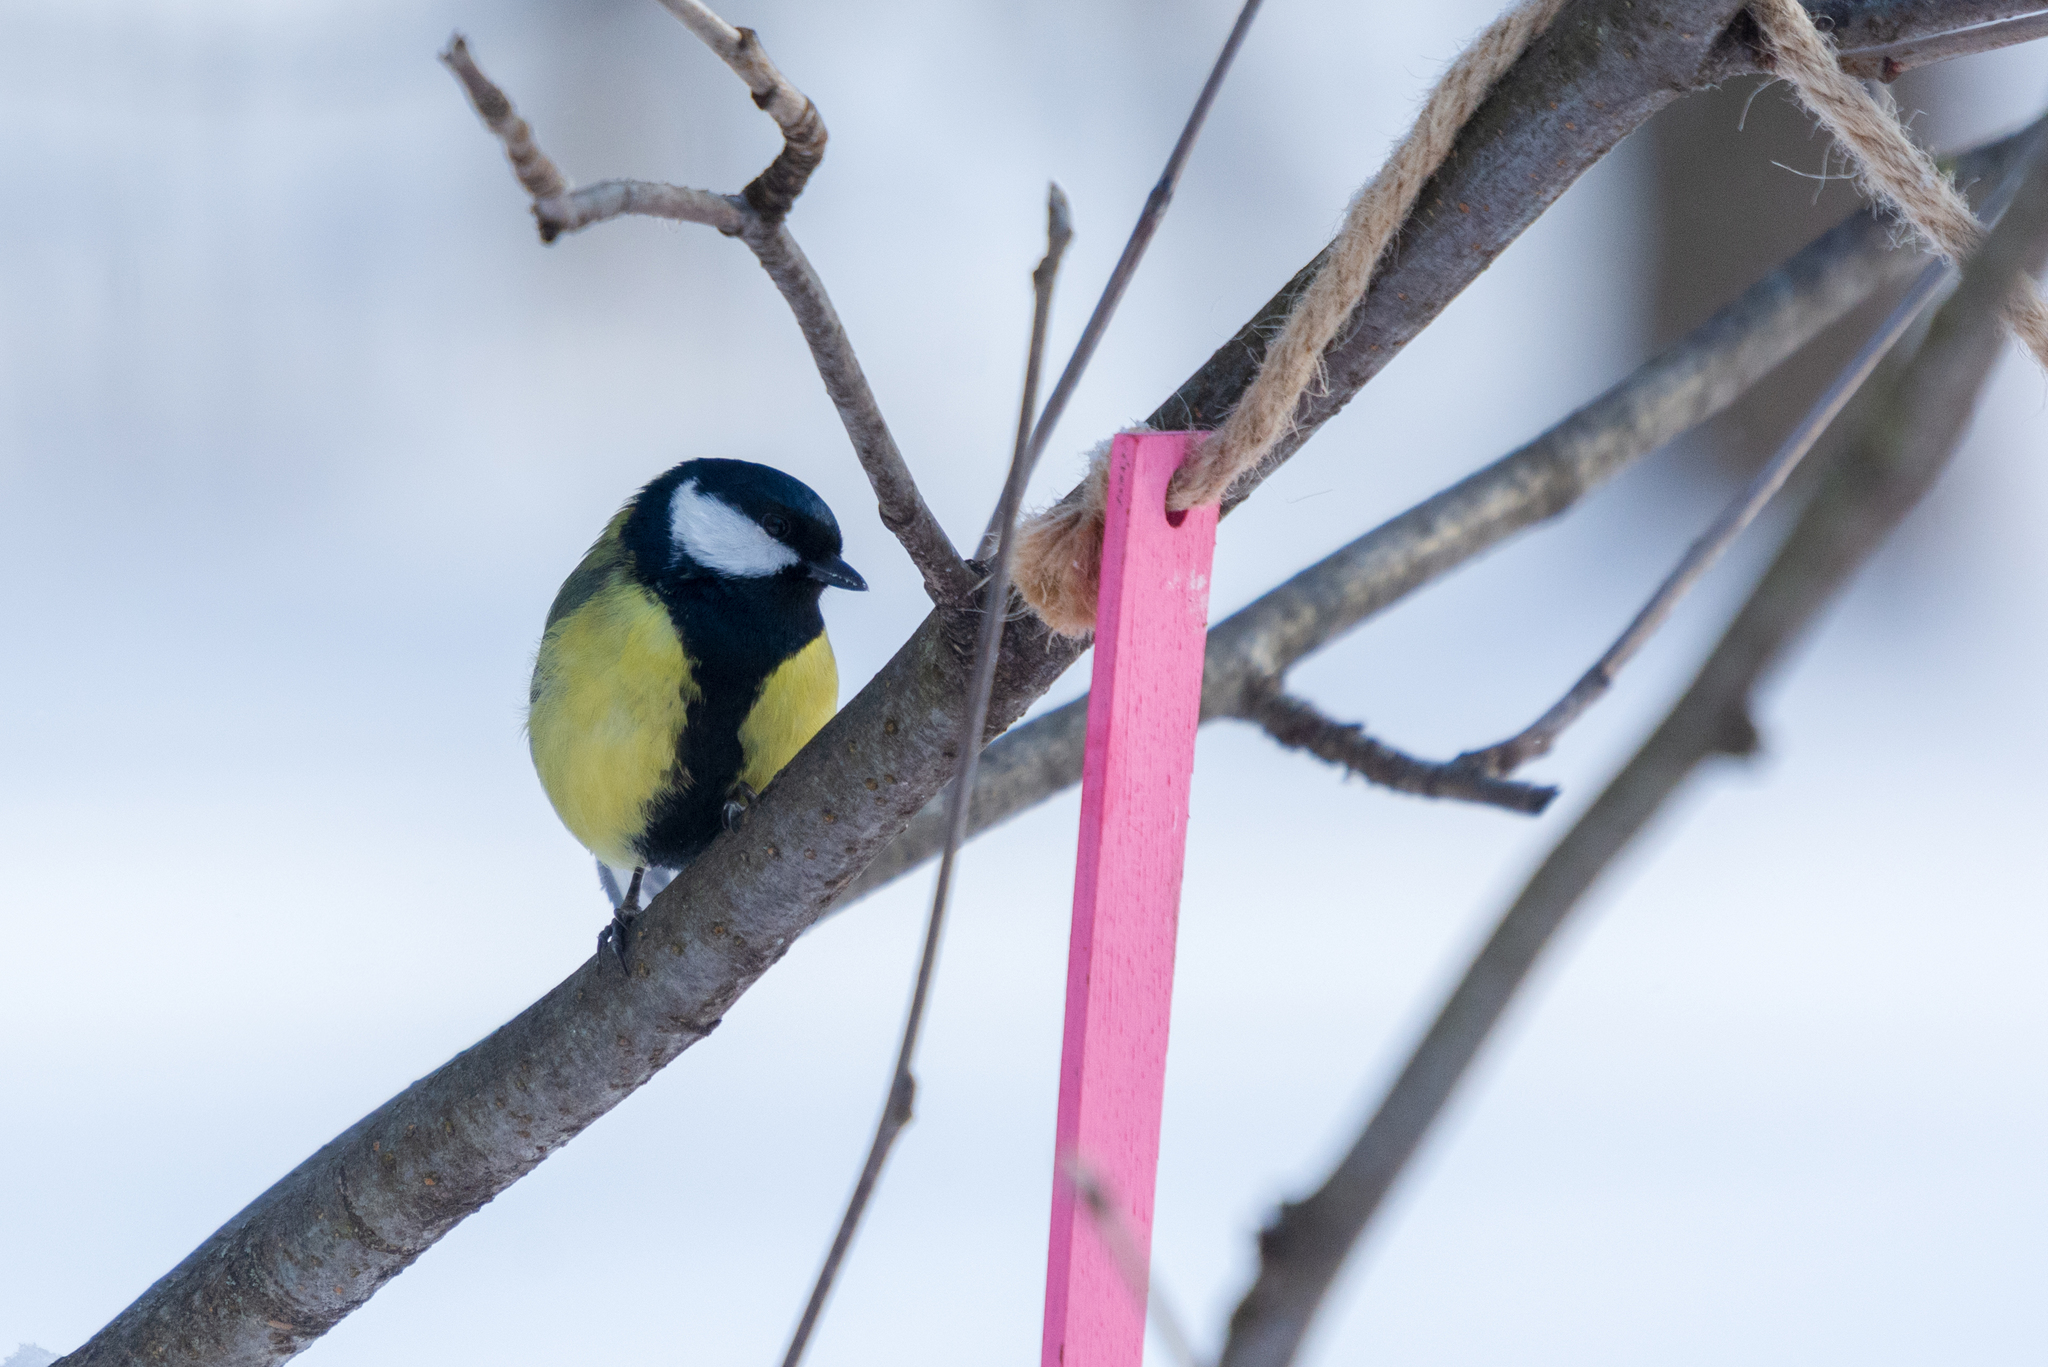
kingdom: Animalia
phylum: Chordata
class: Aves
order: Passeriformes
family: Paridae
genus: Parus
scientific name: Parus major
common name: Great tit
